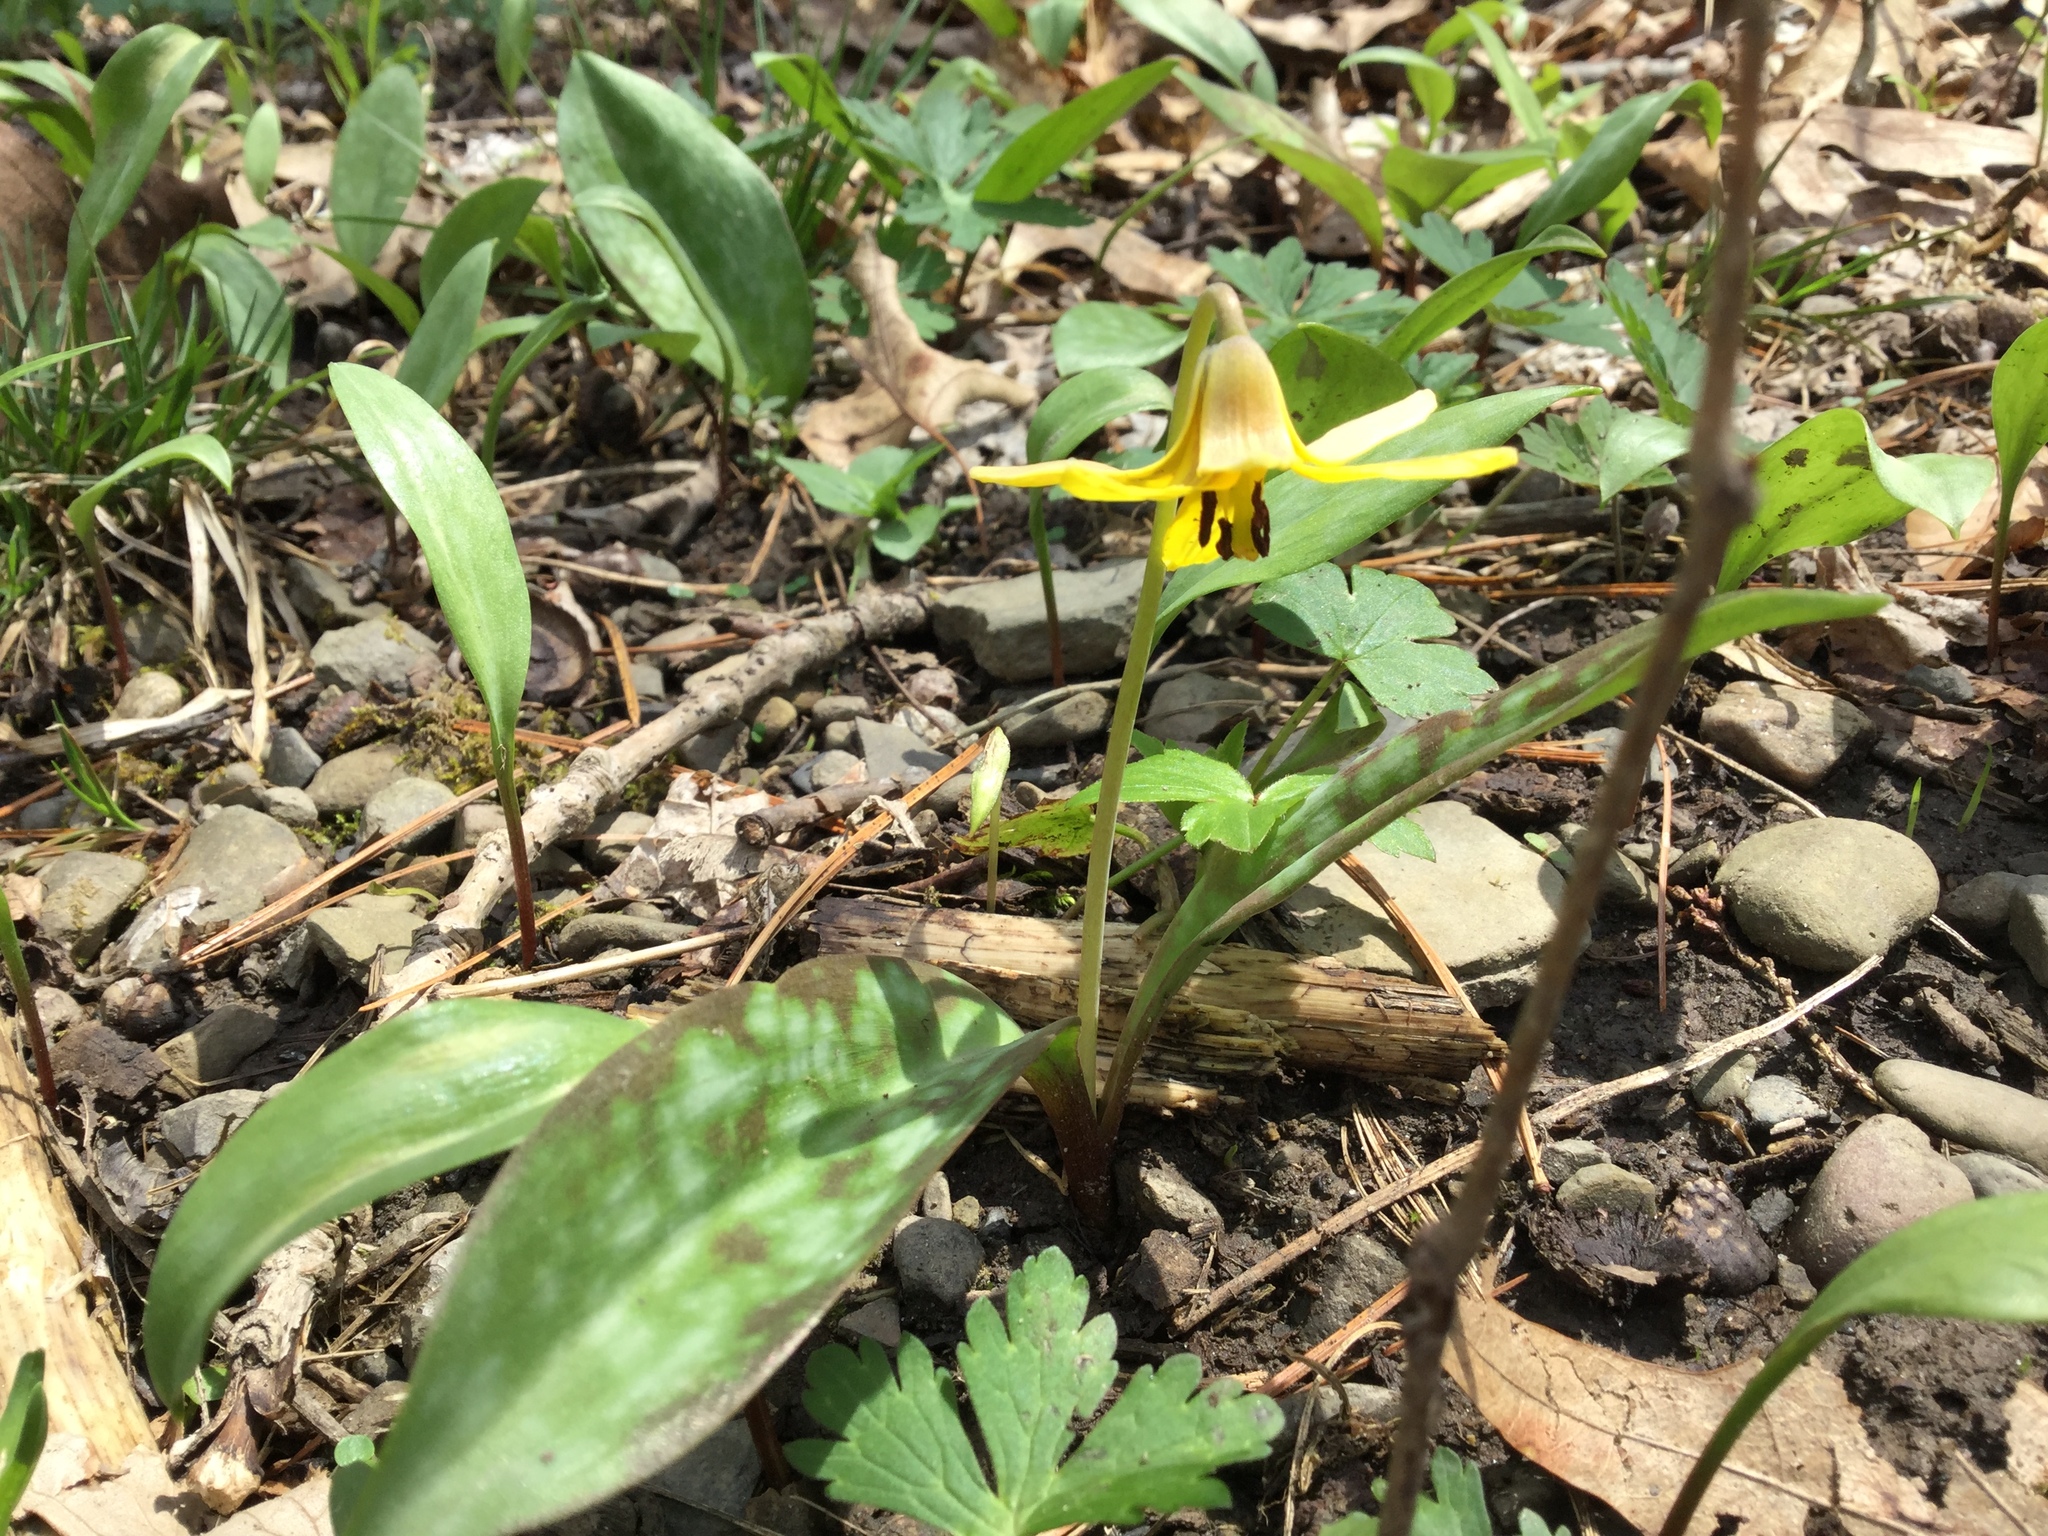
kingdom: Plantae
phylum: Tracheophyta
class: Liliopsida
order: Liliales
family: Liliaceae
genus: Erythronium
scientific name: Erythronium americanum
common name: Yellow adder's-tongue
